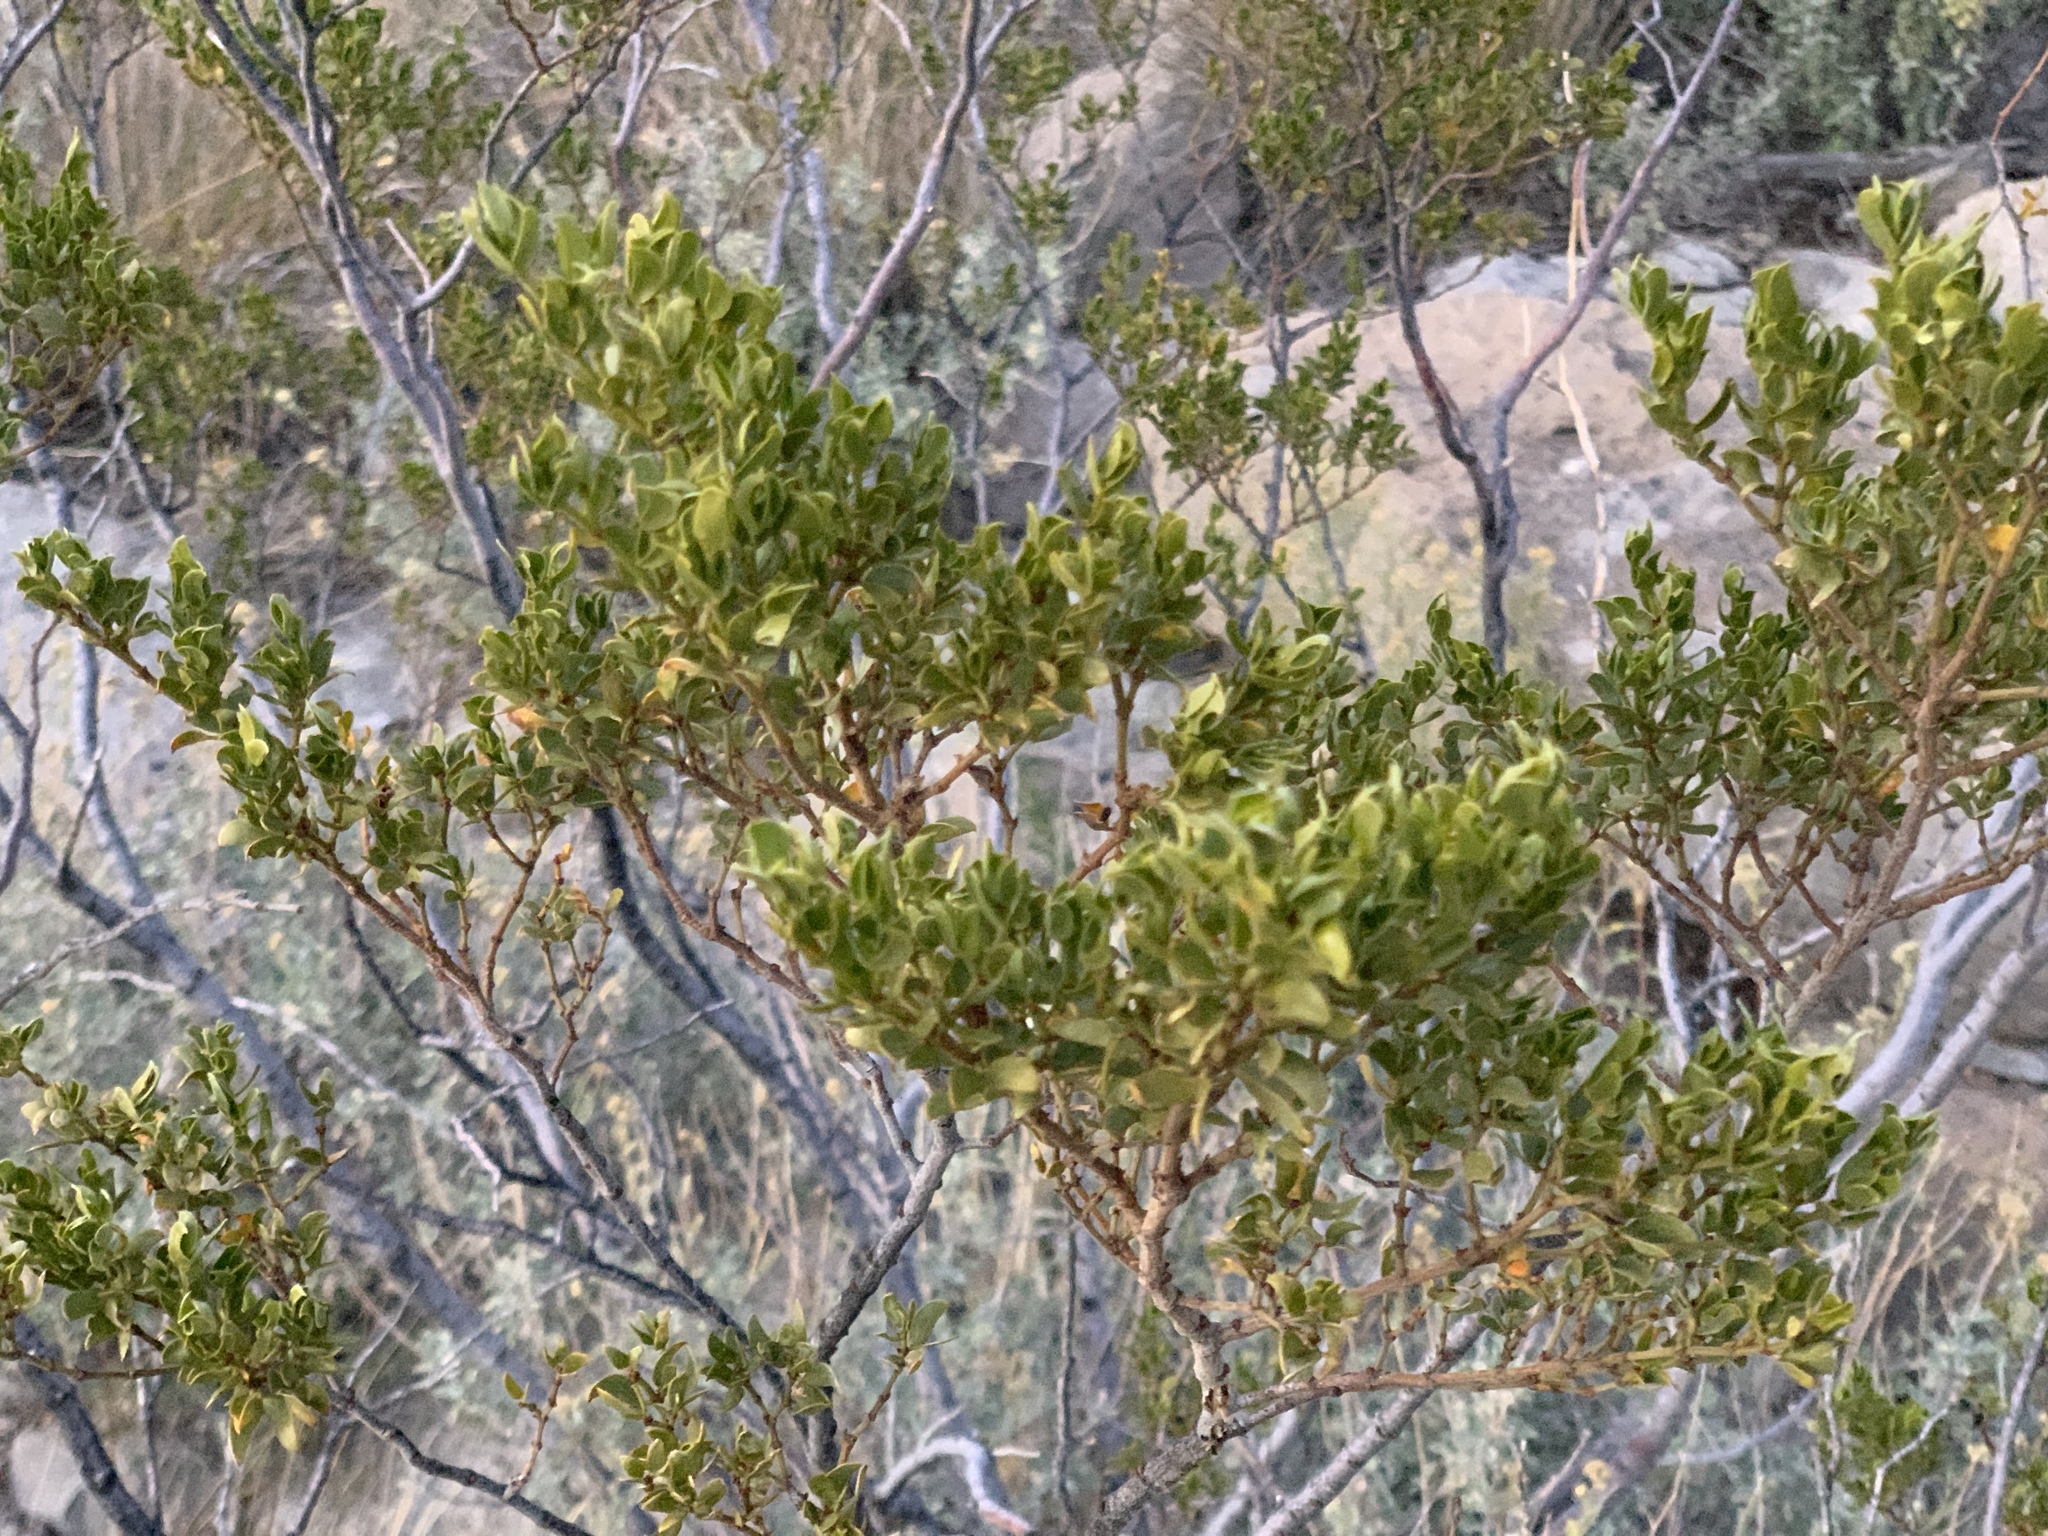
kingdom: Plantae
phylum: Tracheophyta
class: Magnoliopsida
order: Zygophyllales
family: Zygophyllaceae
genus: Larrea
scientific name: Larrea tridentata
